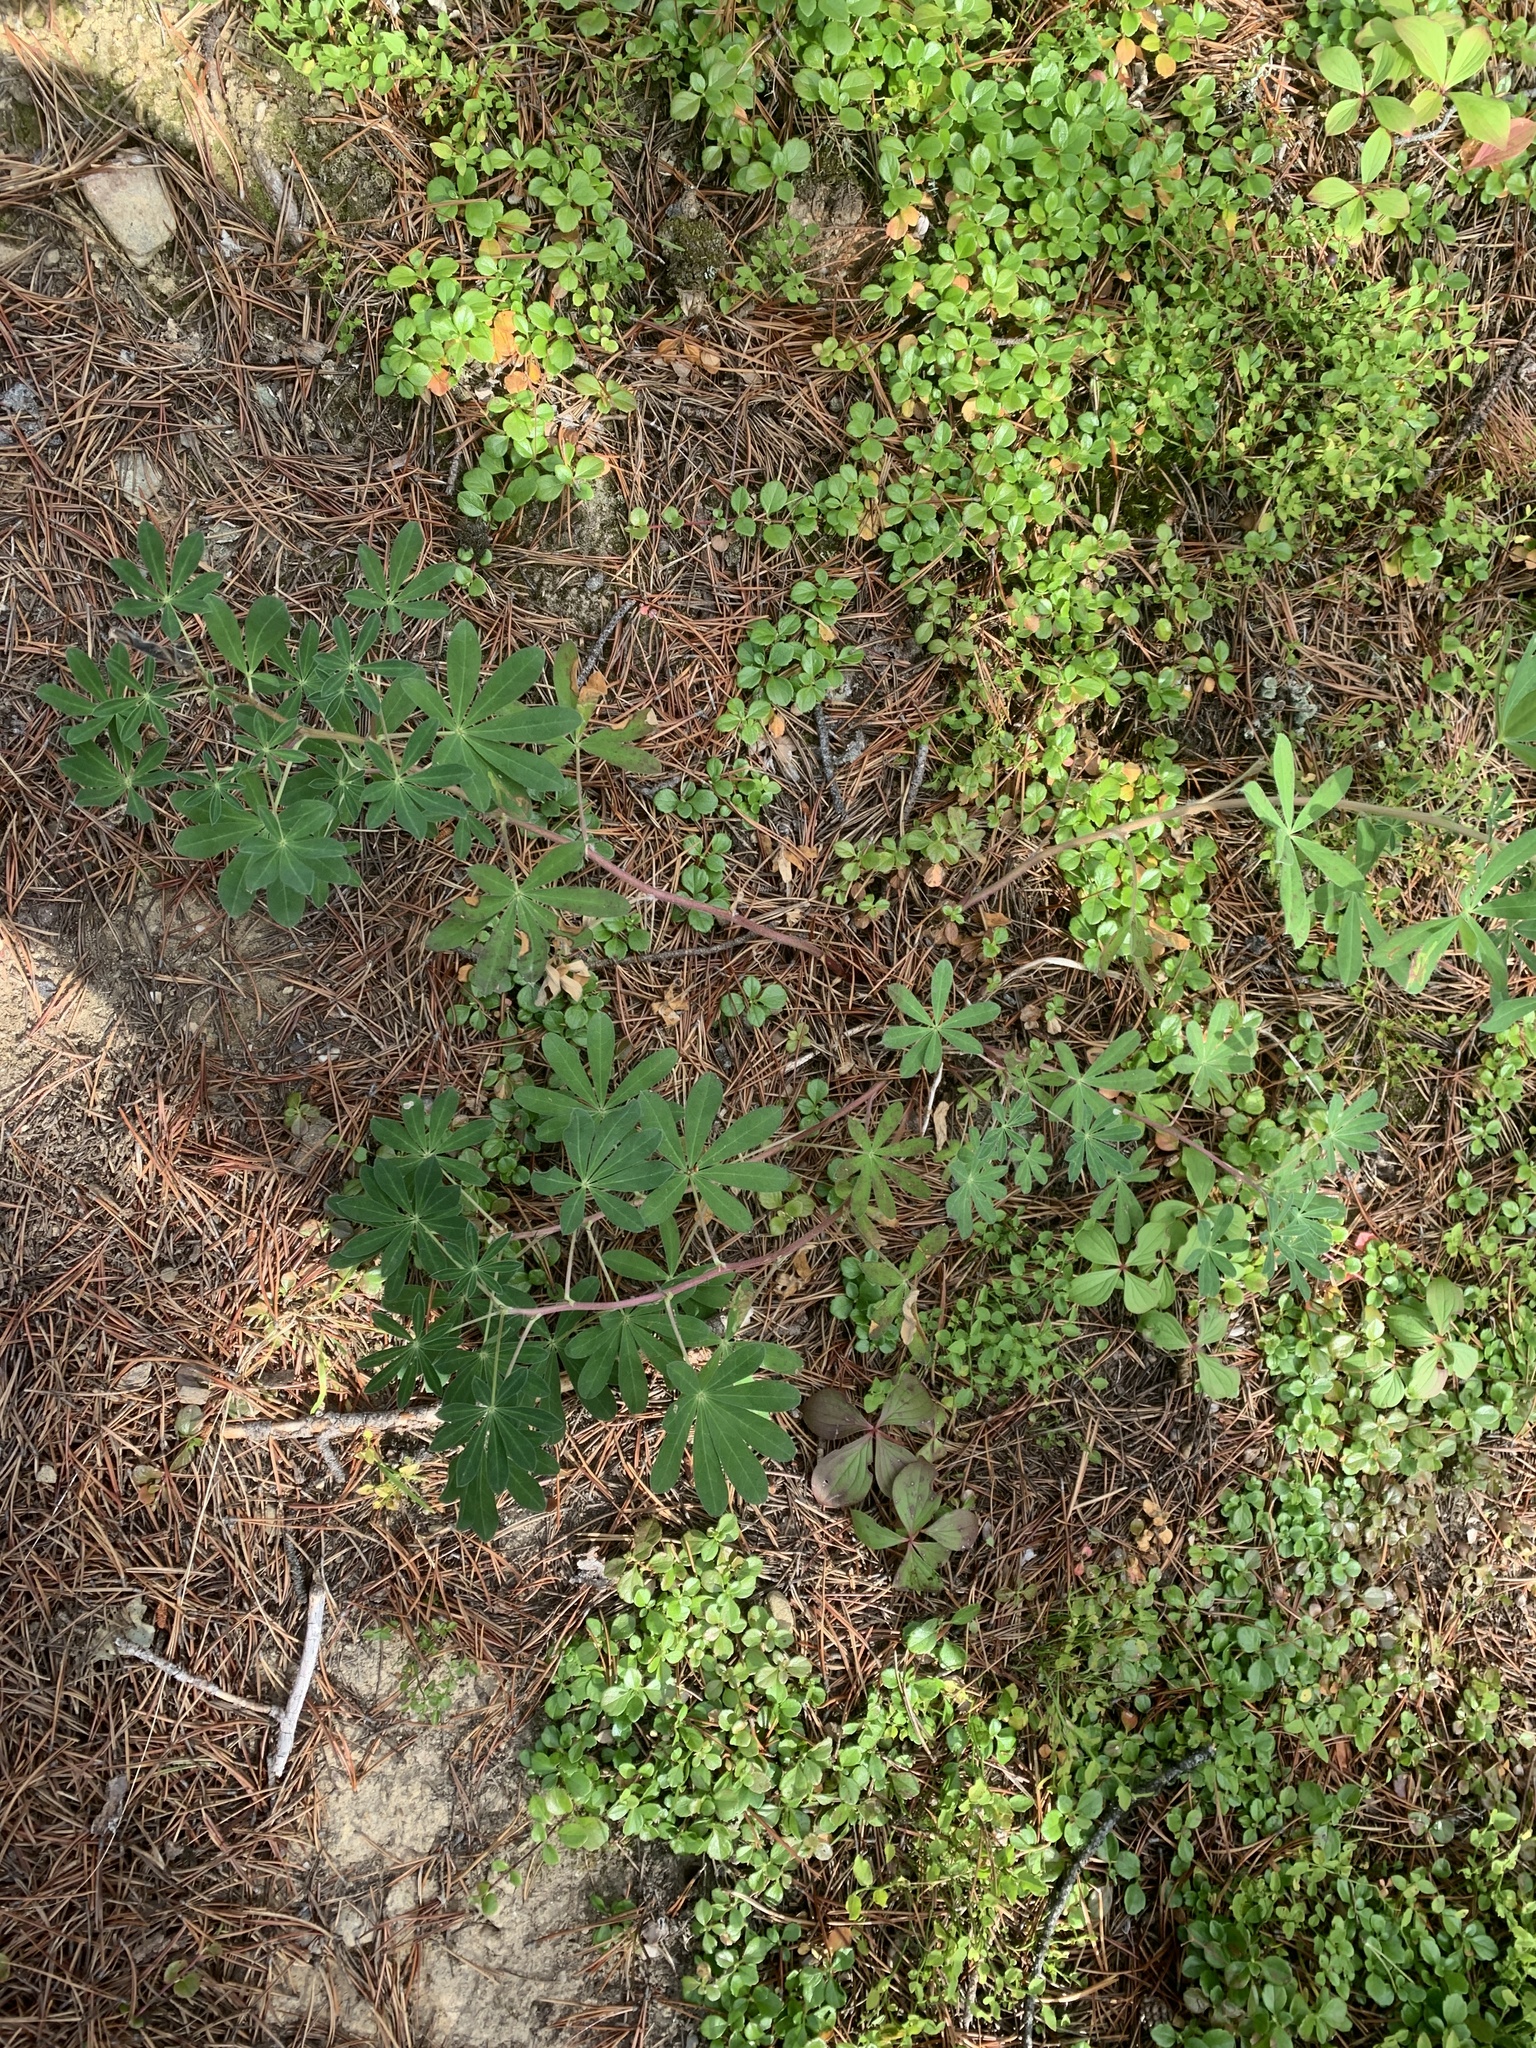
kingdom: Plantae
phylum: Tracheophyta
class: Magnoliopsida
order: Fabales
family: Fabaceae
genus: Lupinus
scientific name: Lupinus nootkatensis
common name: Nootka lupine
